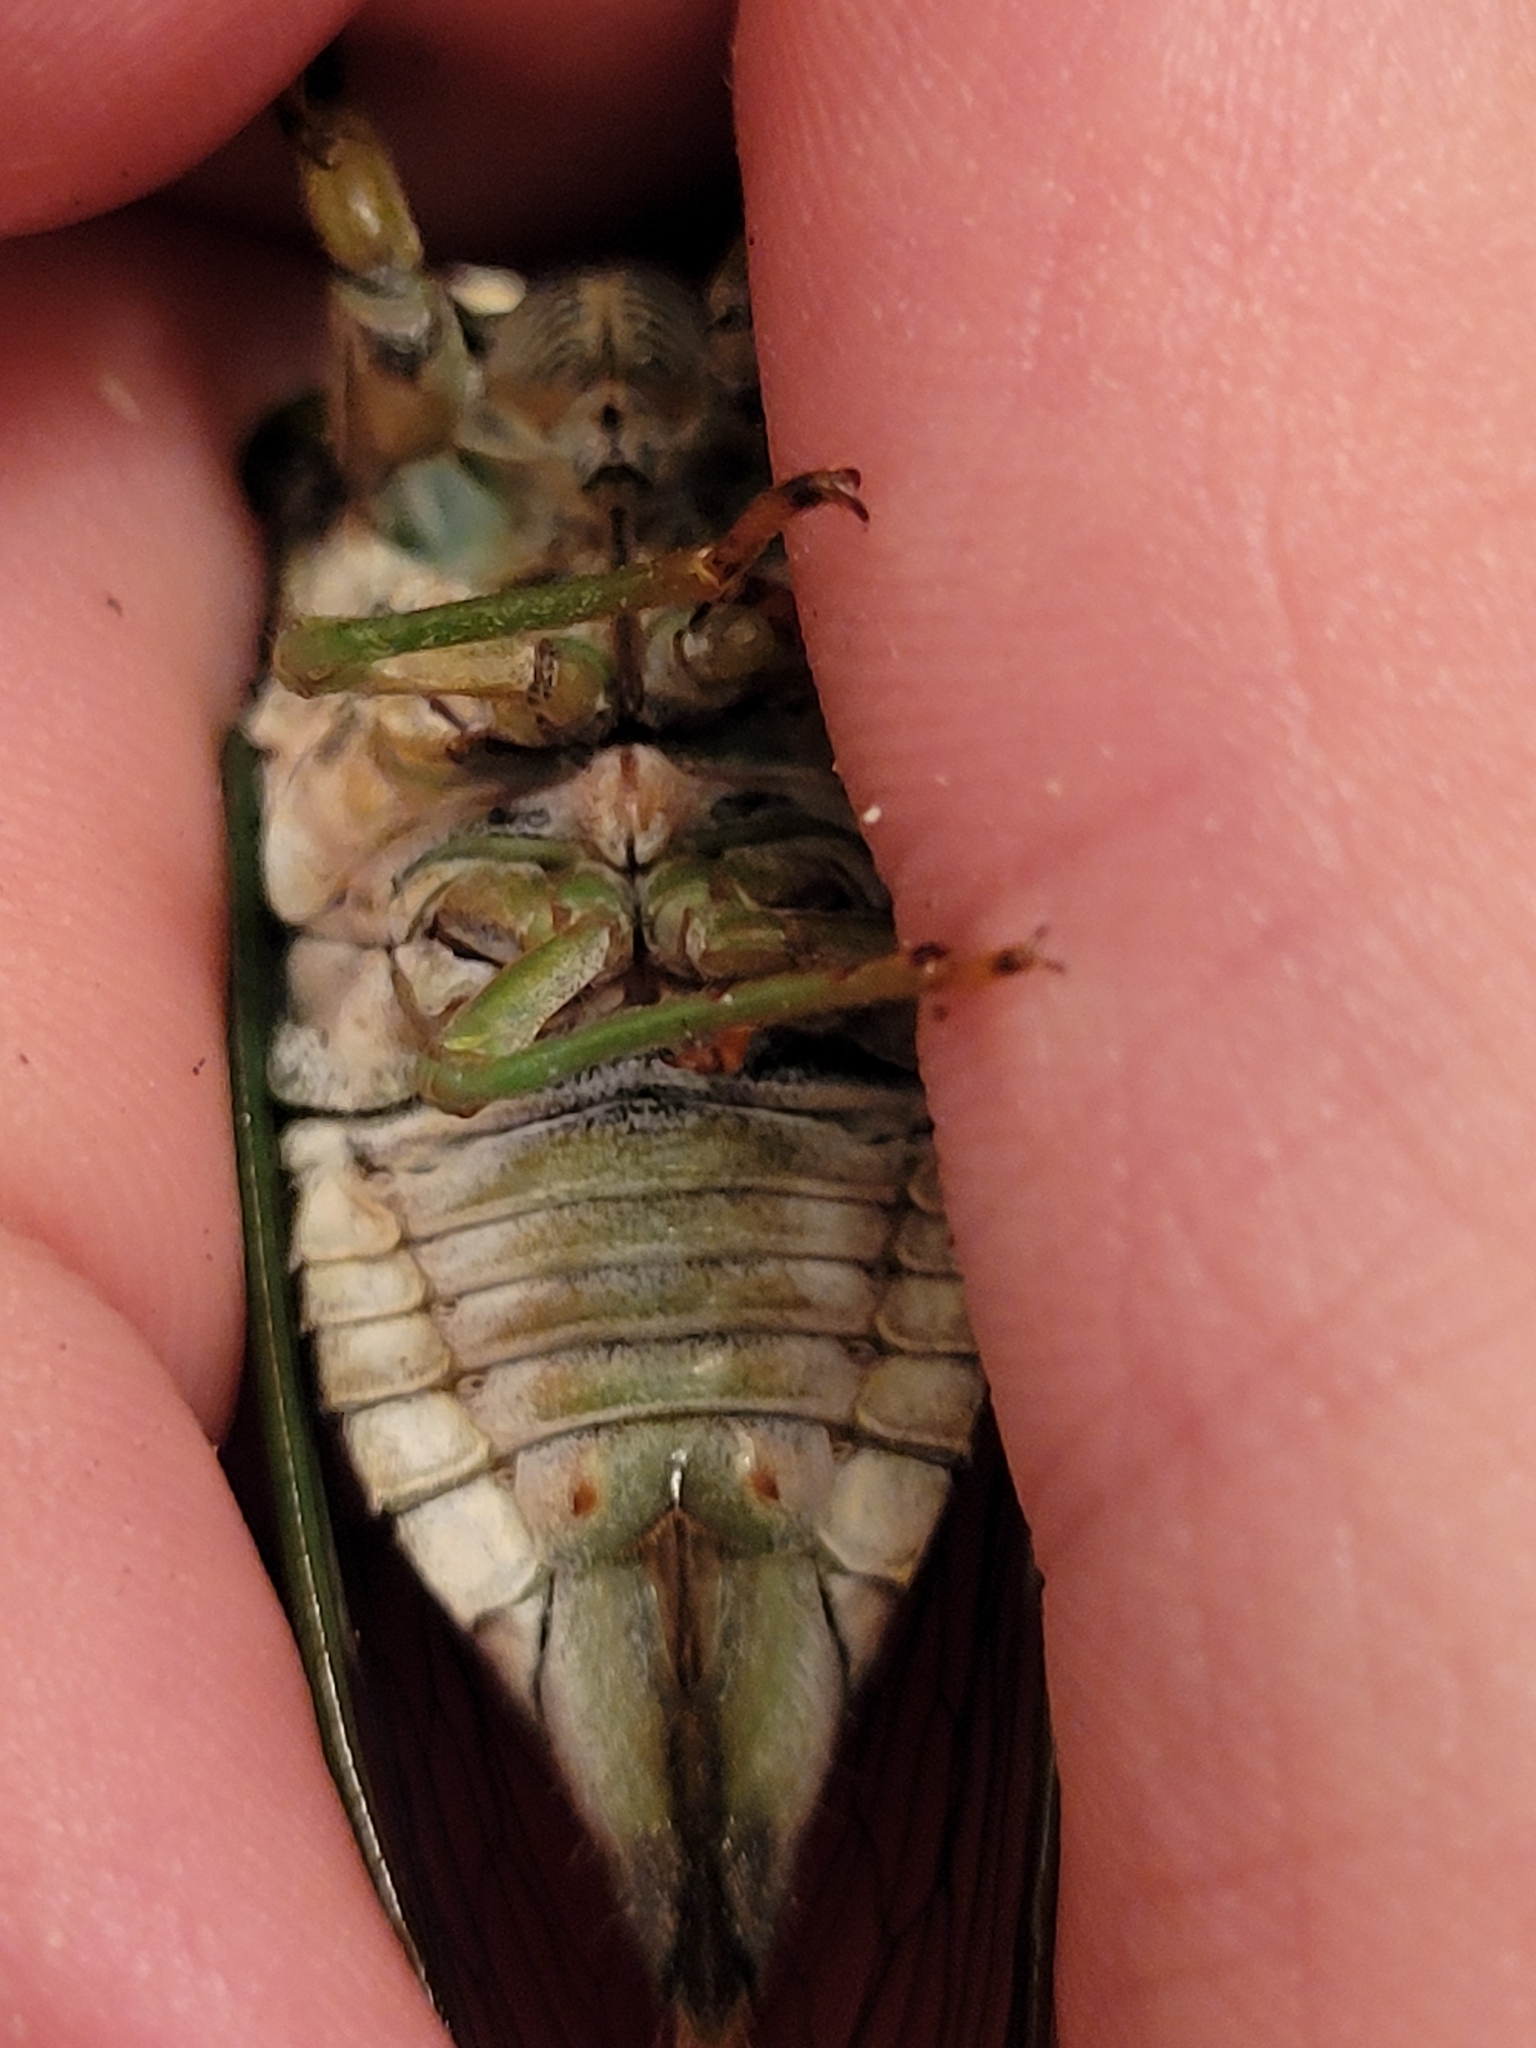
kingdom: Animalia
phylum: Arthropoda
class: Insecta
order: Hemiptera
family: Cicadidae
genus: Neotibicen
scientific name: Neotibicen tibicen
